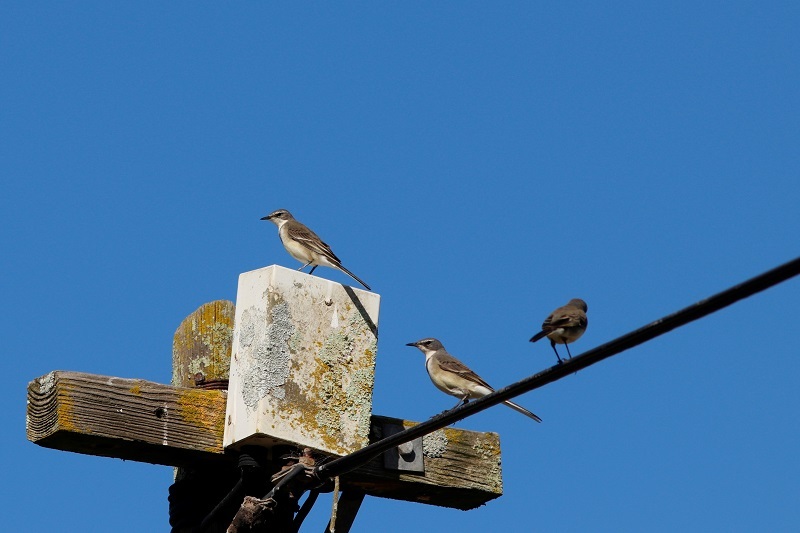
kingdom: Animalia
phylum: Chordata
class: Aves
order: Passeriformes
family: Motacillidae
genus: Motacilla
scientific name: Motacilla capensis
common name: Cape wagtail
